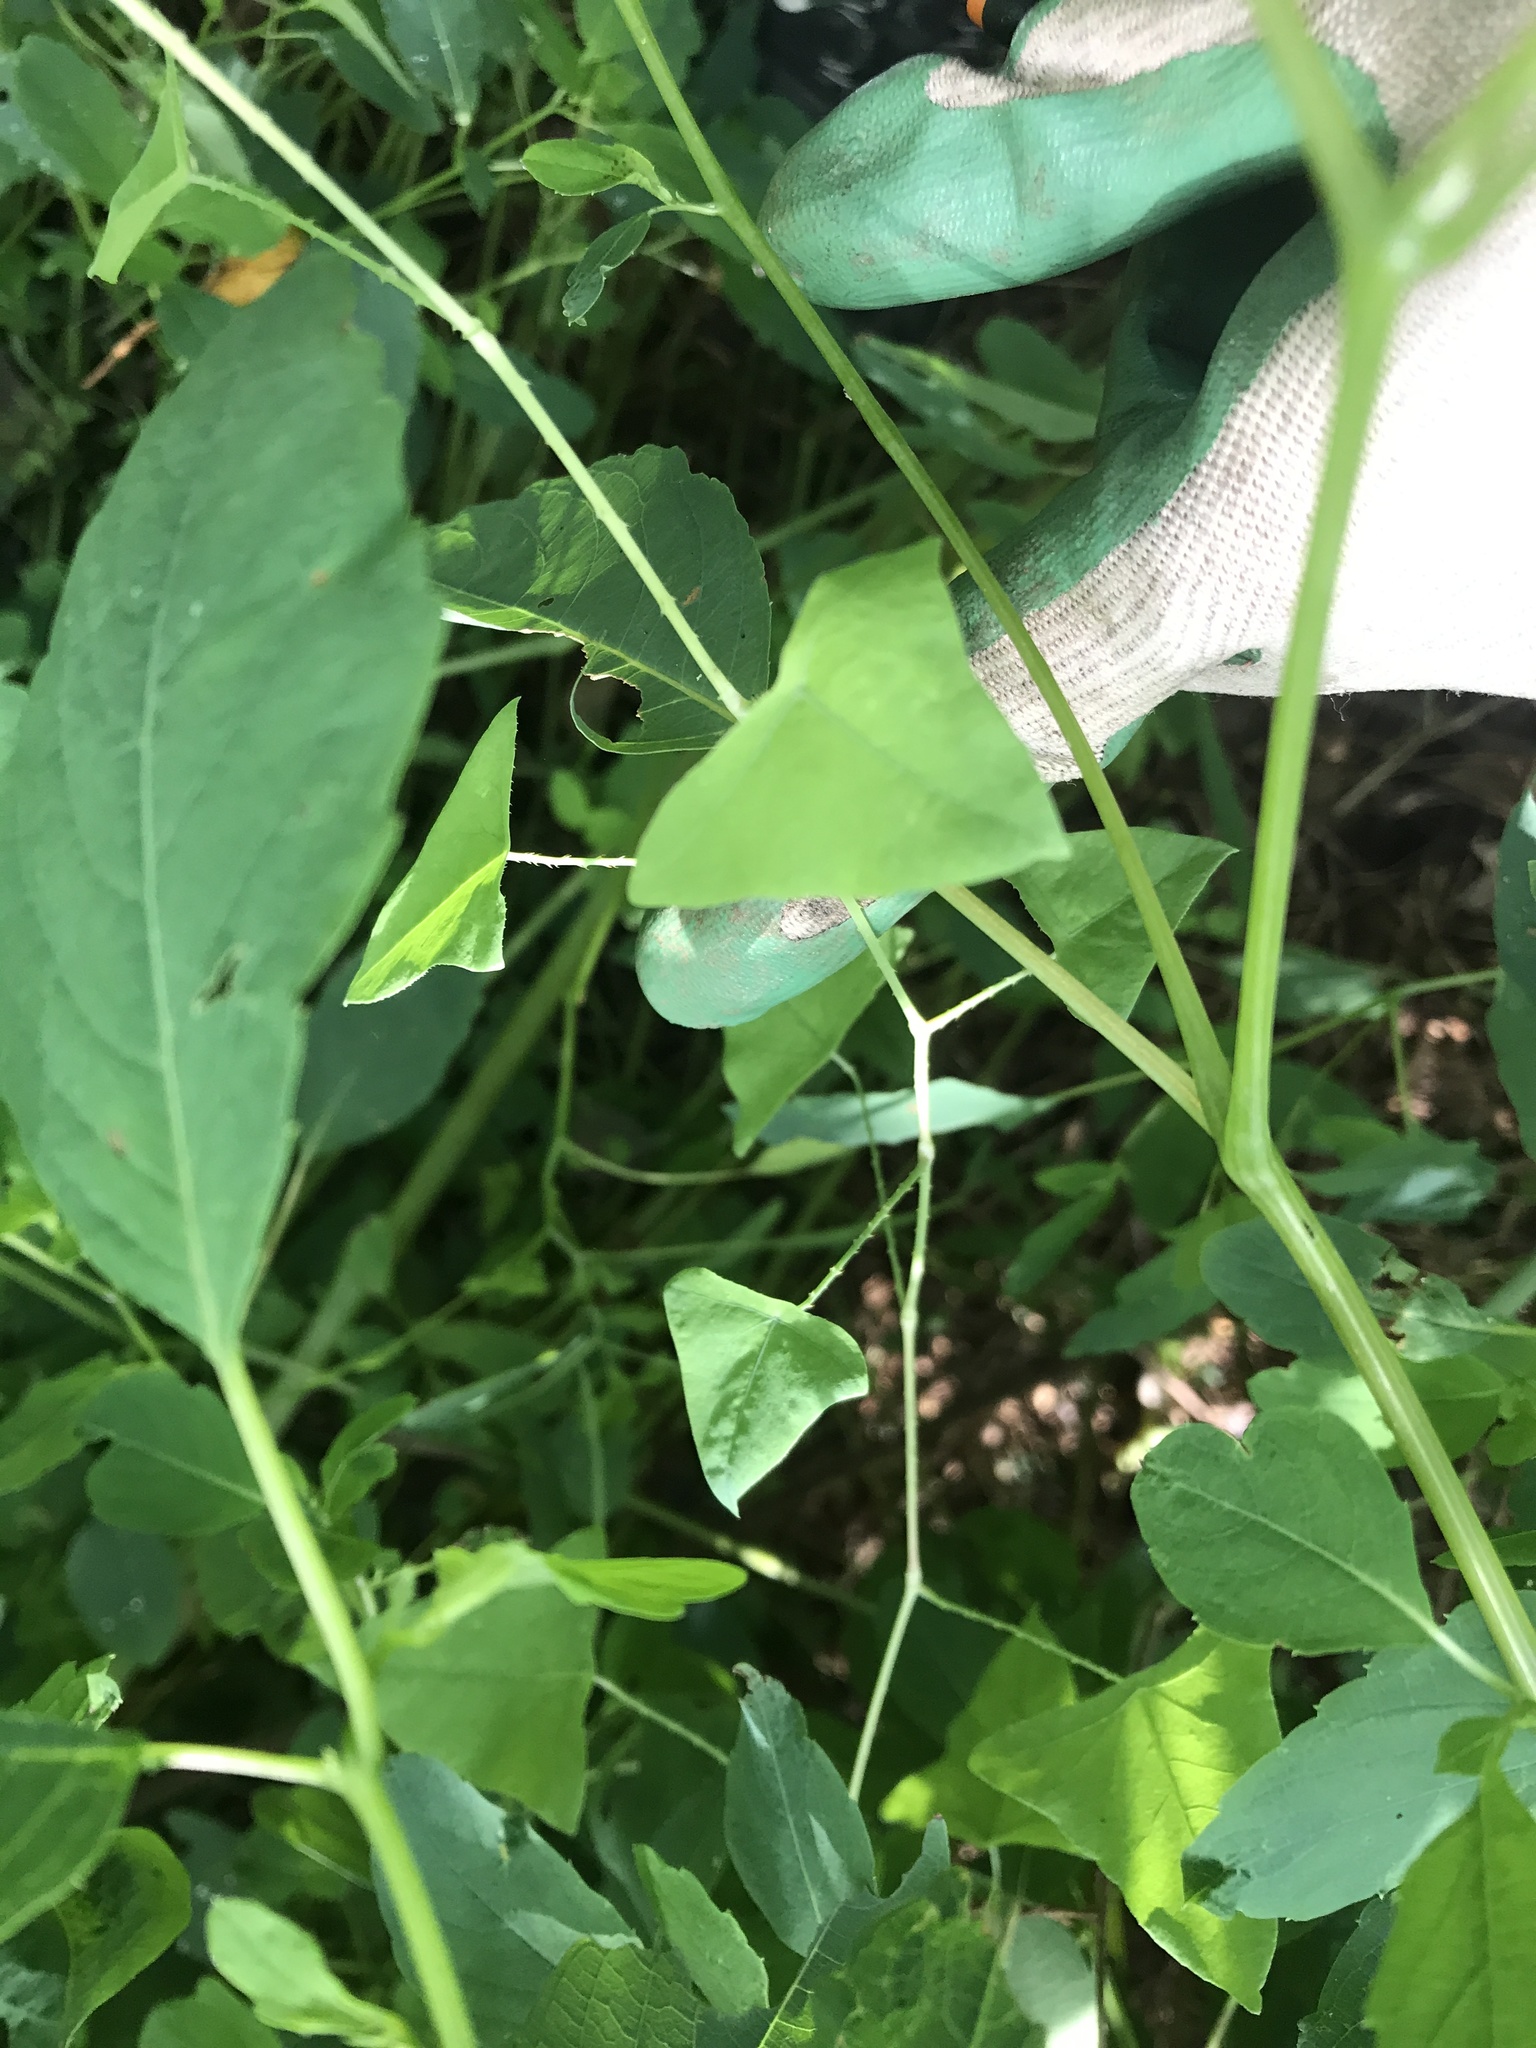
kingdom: Plantae
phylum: Tracheophyta
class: Magnoliopsida
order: Caryophyllales
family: Polygonaceae
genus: Persicaria
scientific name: Persicaria perfoliata
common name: Asiatic tearthumb
